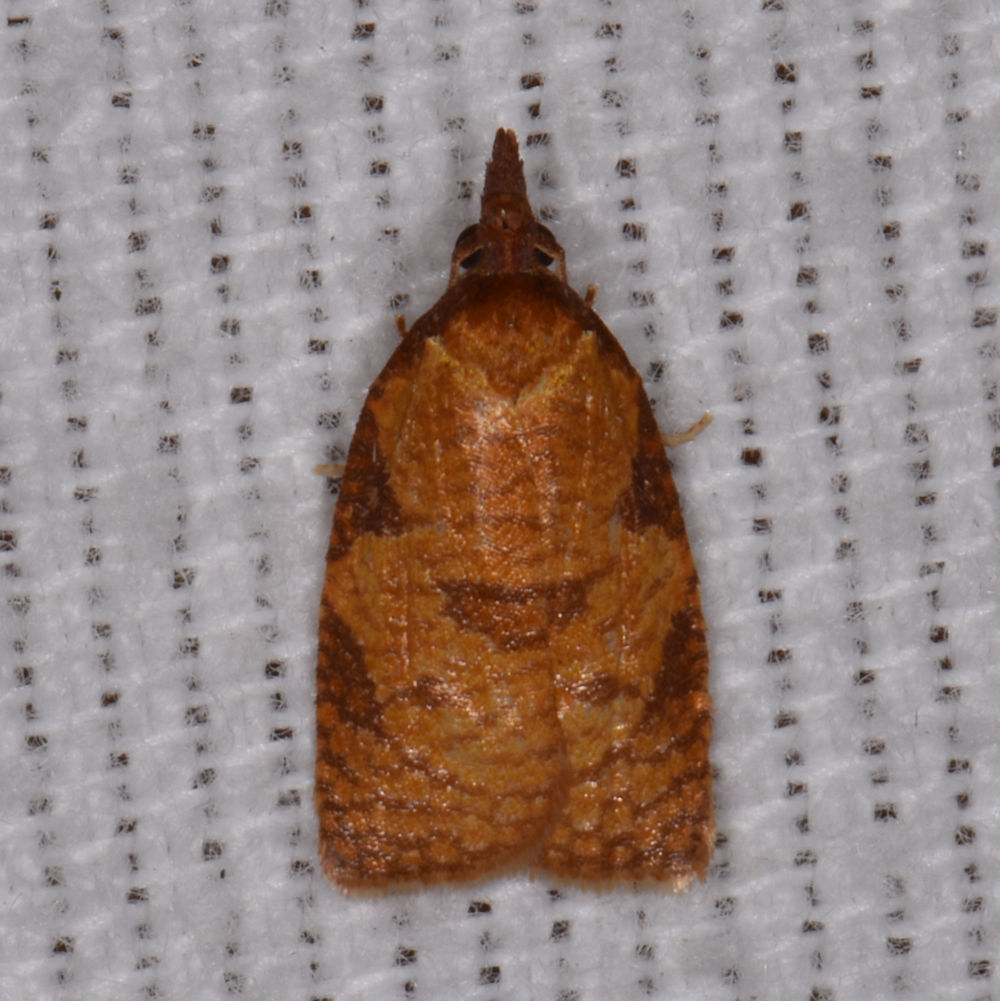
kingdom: Animalia
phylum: Arthropoda
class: Insecta
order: Lepidoptera
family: Tortricidae
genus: Cenopis
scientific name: Cenopis reticulatana
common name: Reticulated fruitworm moth
